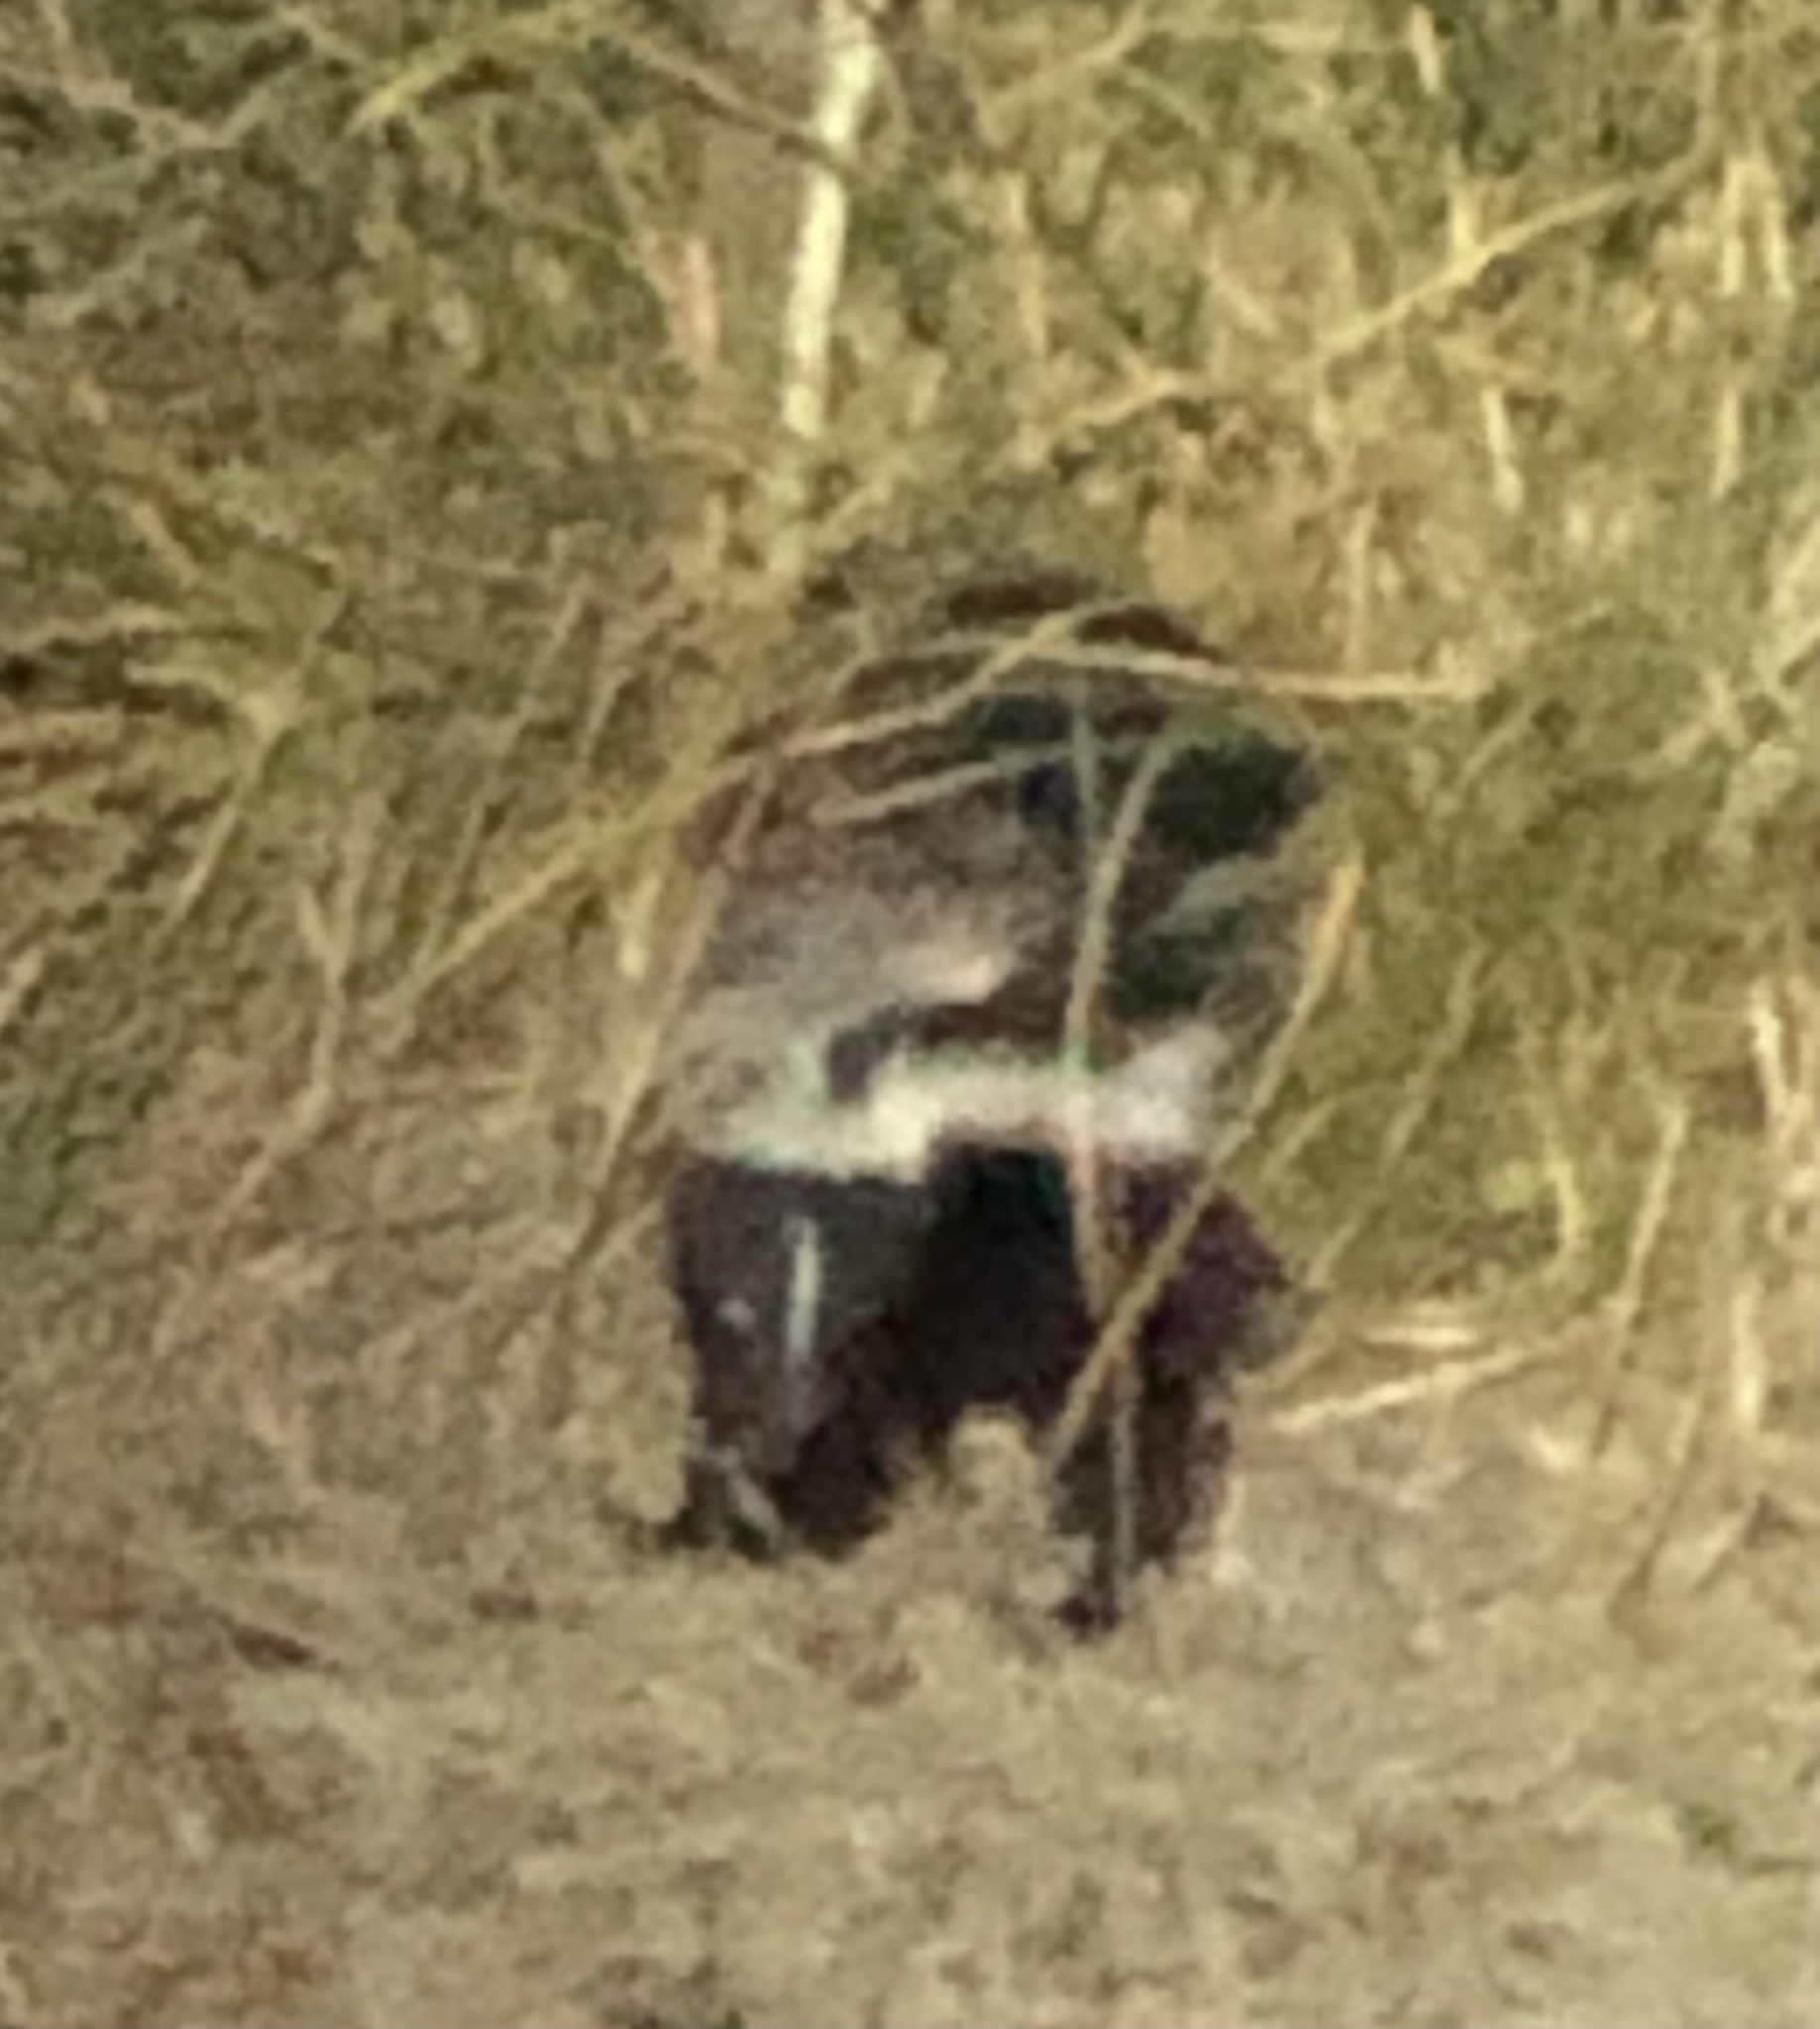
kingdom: Animalia
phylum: Chordata
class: Mammalia
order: Carnivora
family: Mephitidae
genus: Mephitis
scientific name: Mephitis mephitis
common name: Striped skunk
